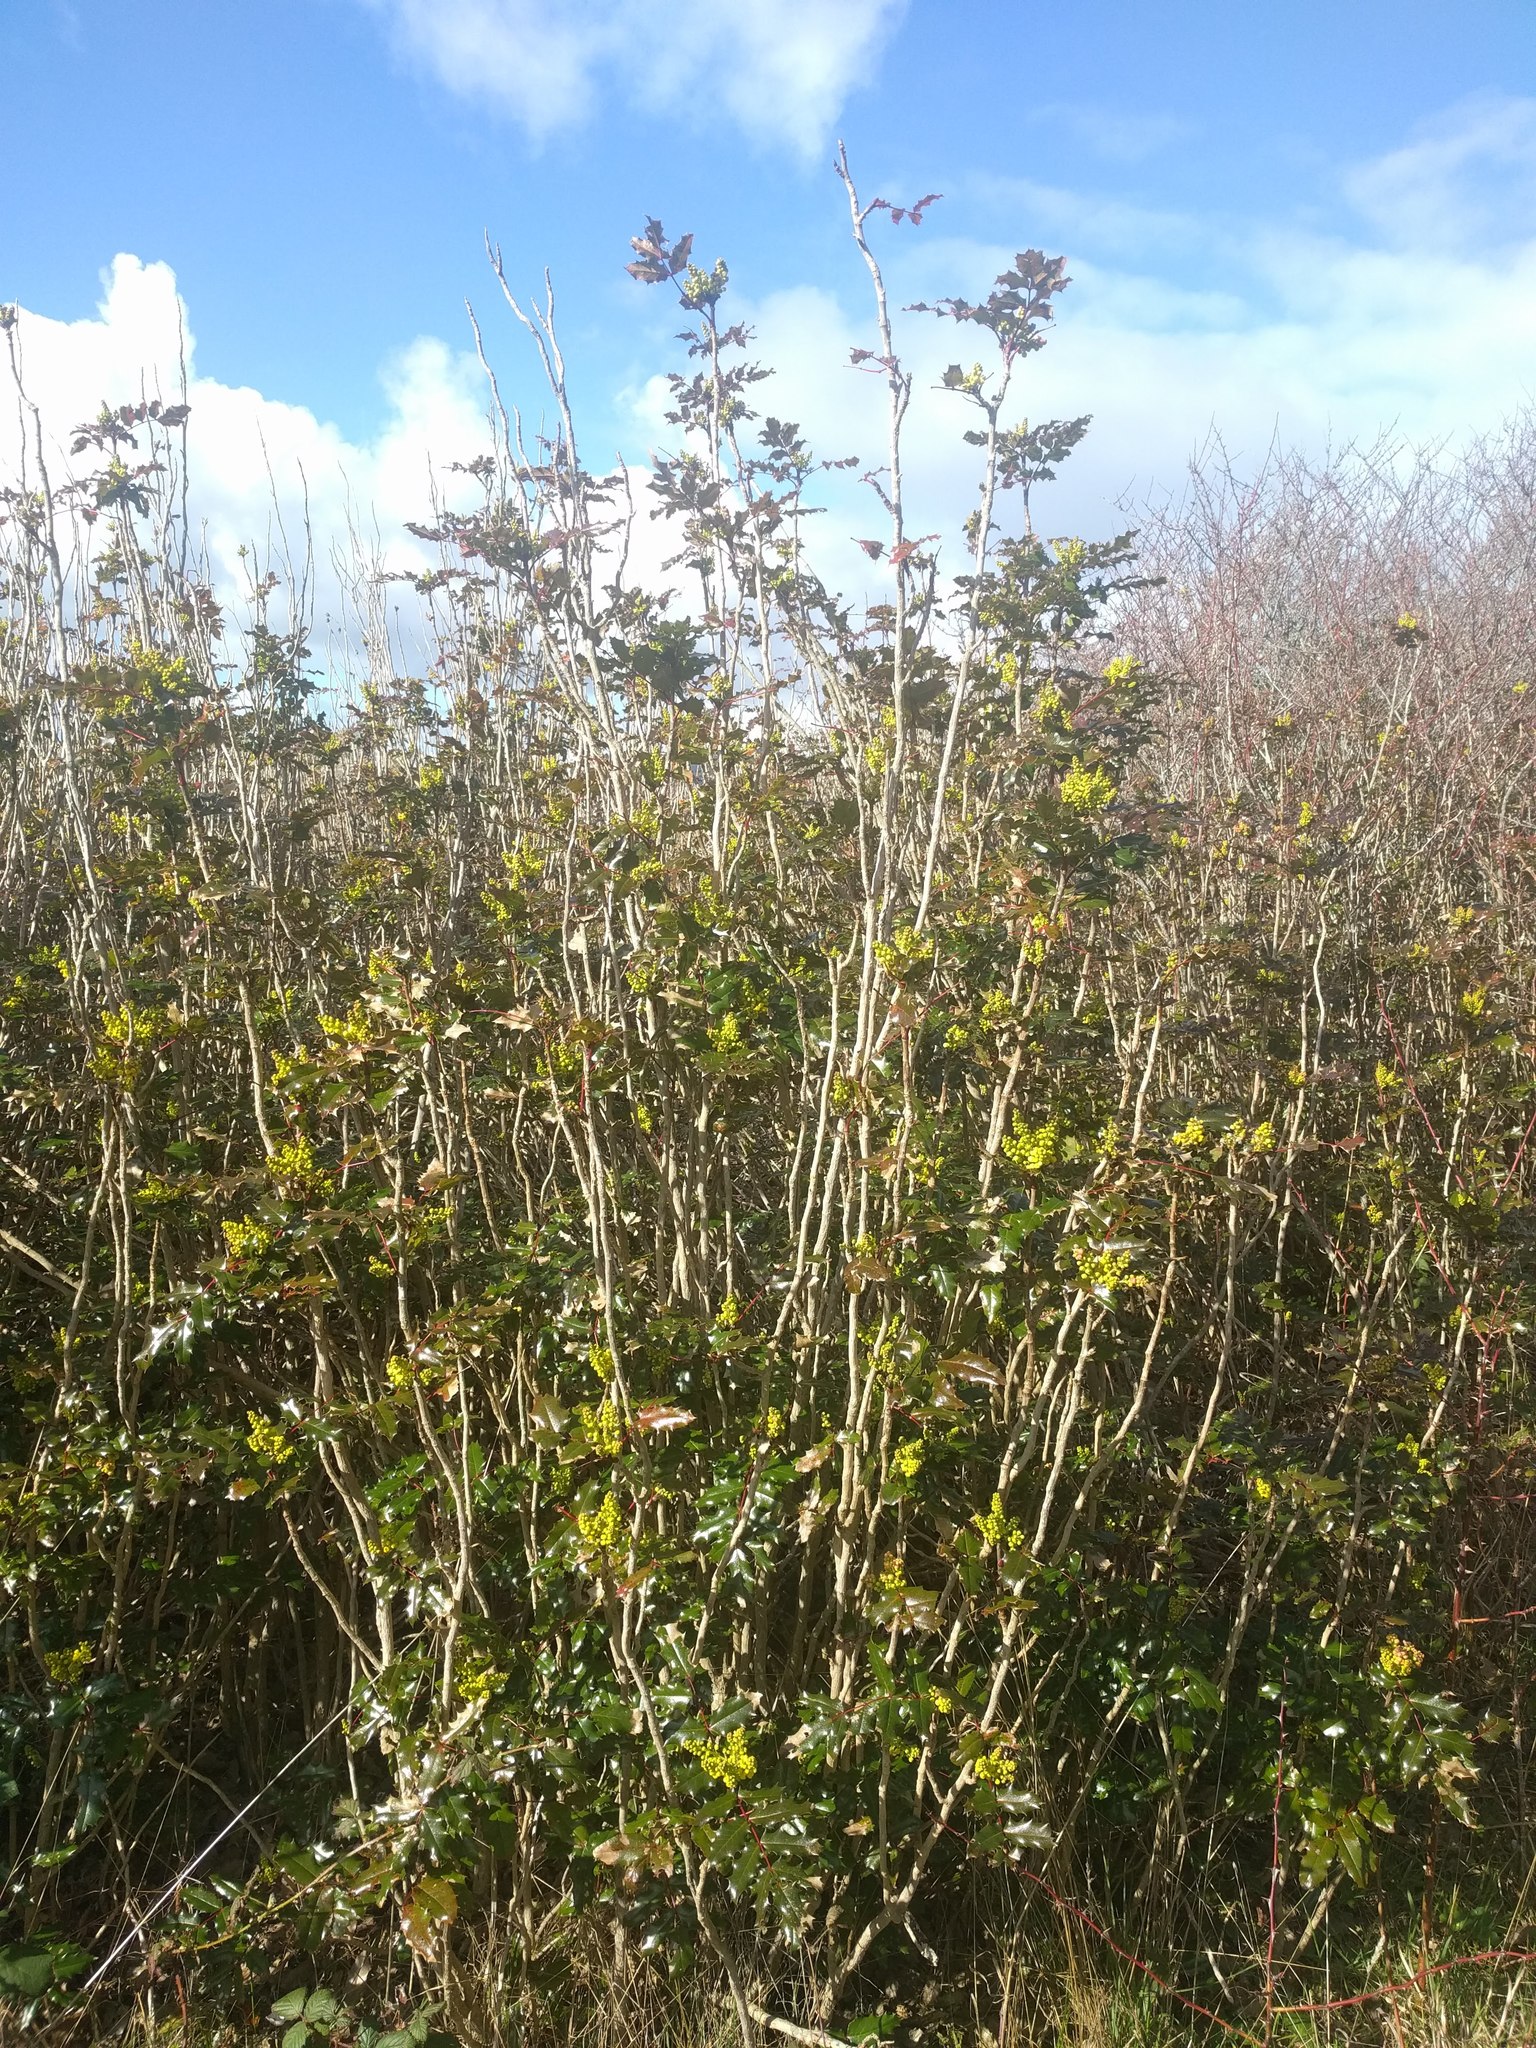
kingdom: Plantae
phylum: Tracheophyta
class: Magnoliopsida
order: Ranunculales
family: Berberidaceae
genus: Mahonia
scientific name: Mahonia aquifolium
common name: Oregon-grape
